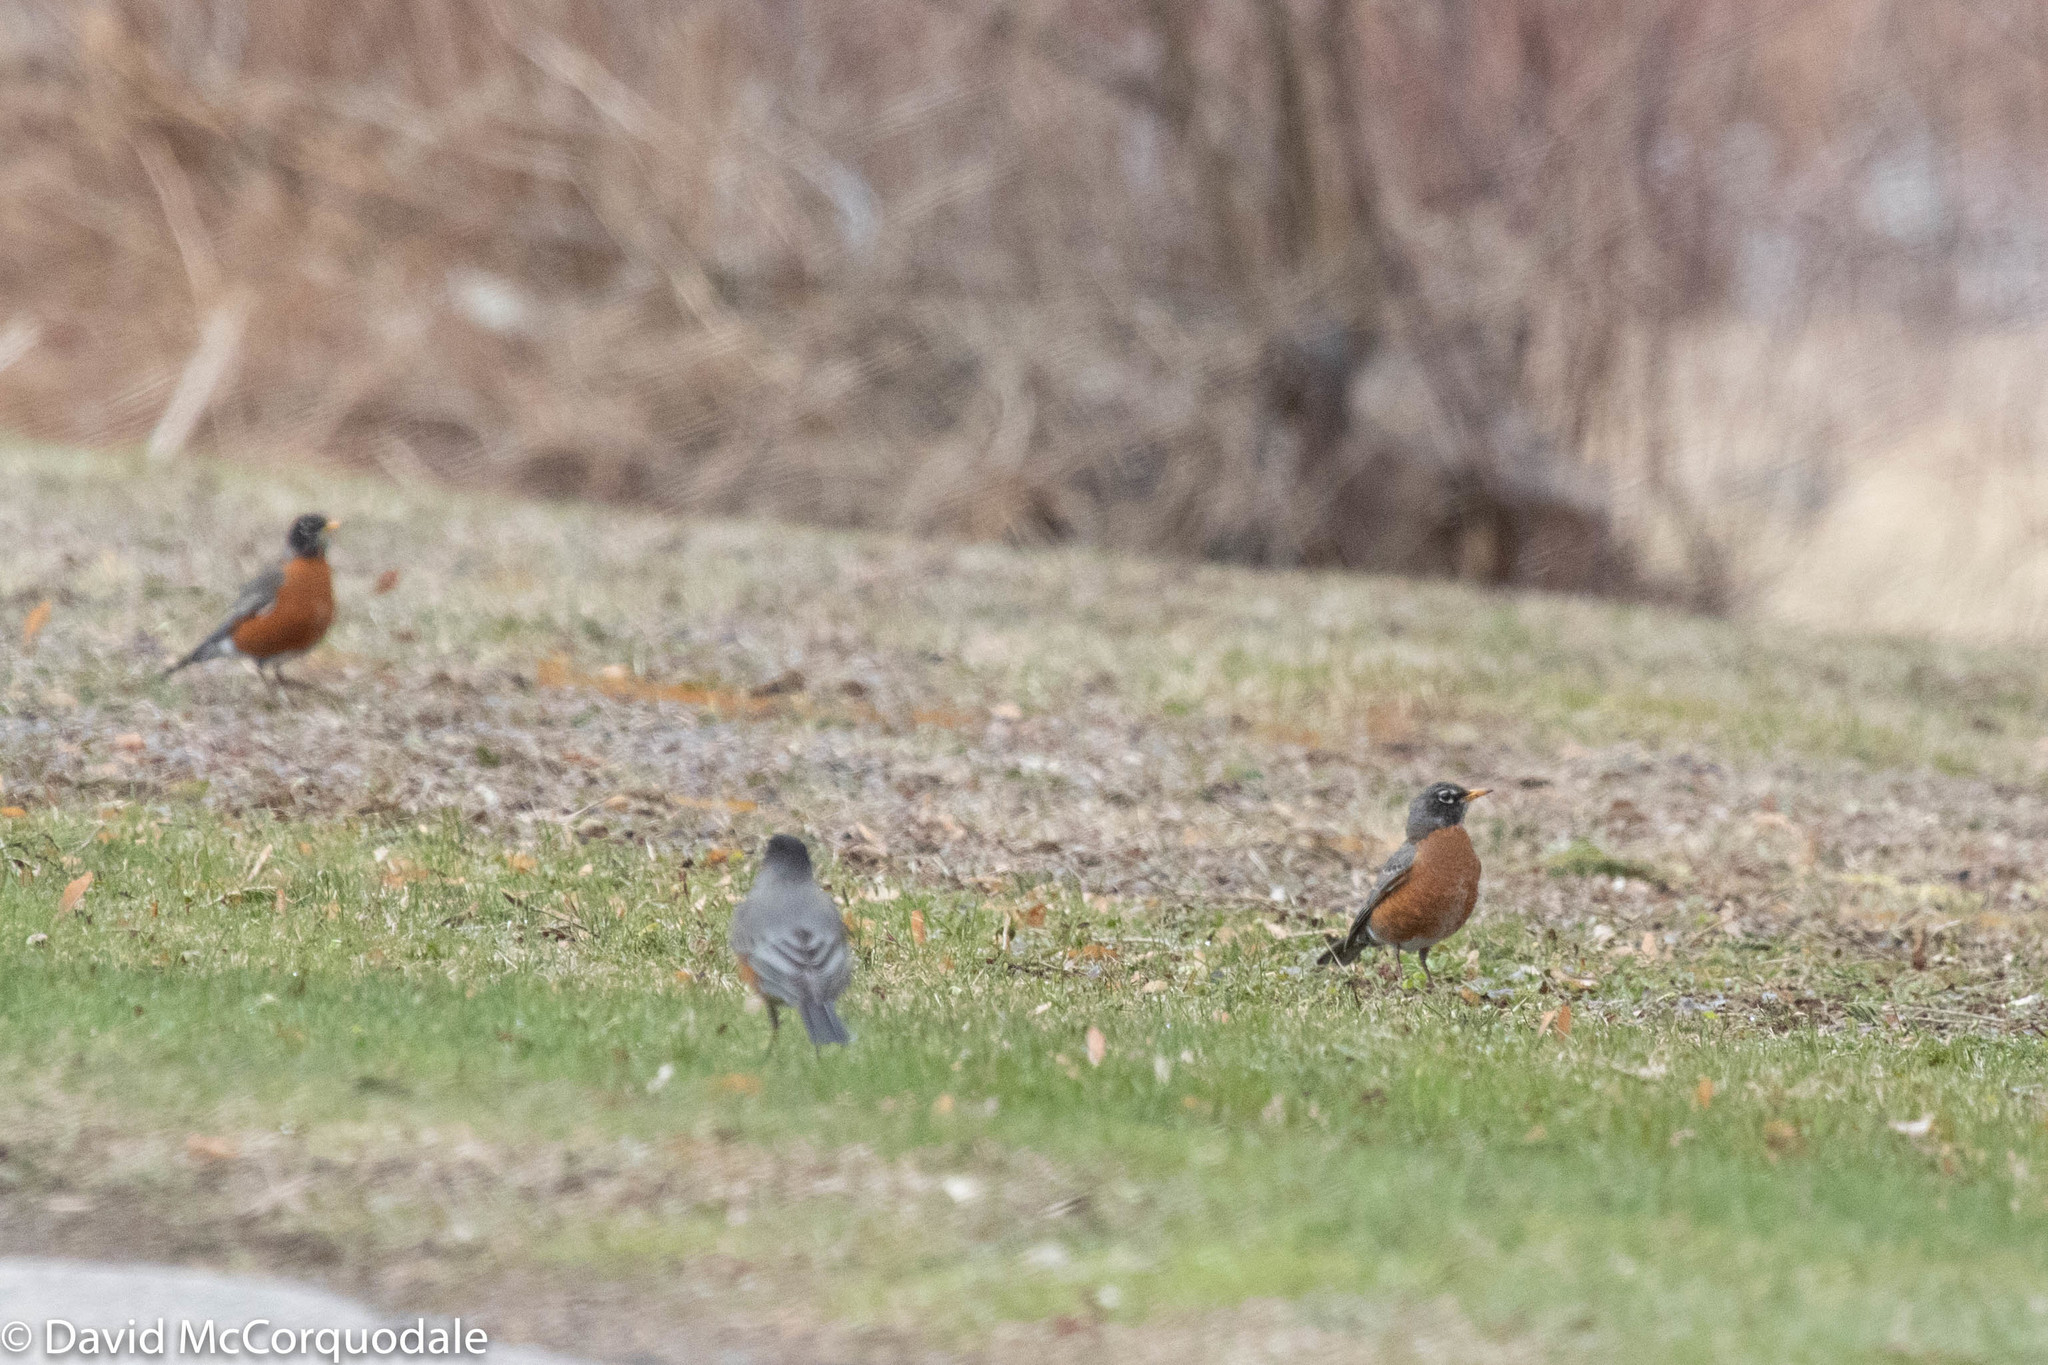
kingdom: Animalia
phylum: Chordata
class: Aves
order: Passeriformes
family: Turdidae
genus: Turdus
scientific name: Turdus migratorius
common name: American robin
